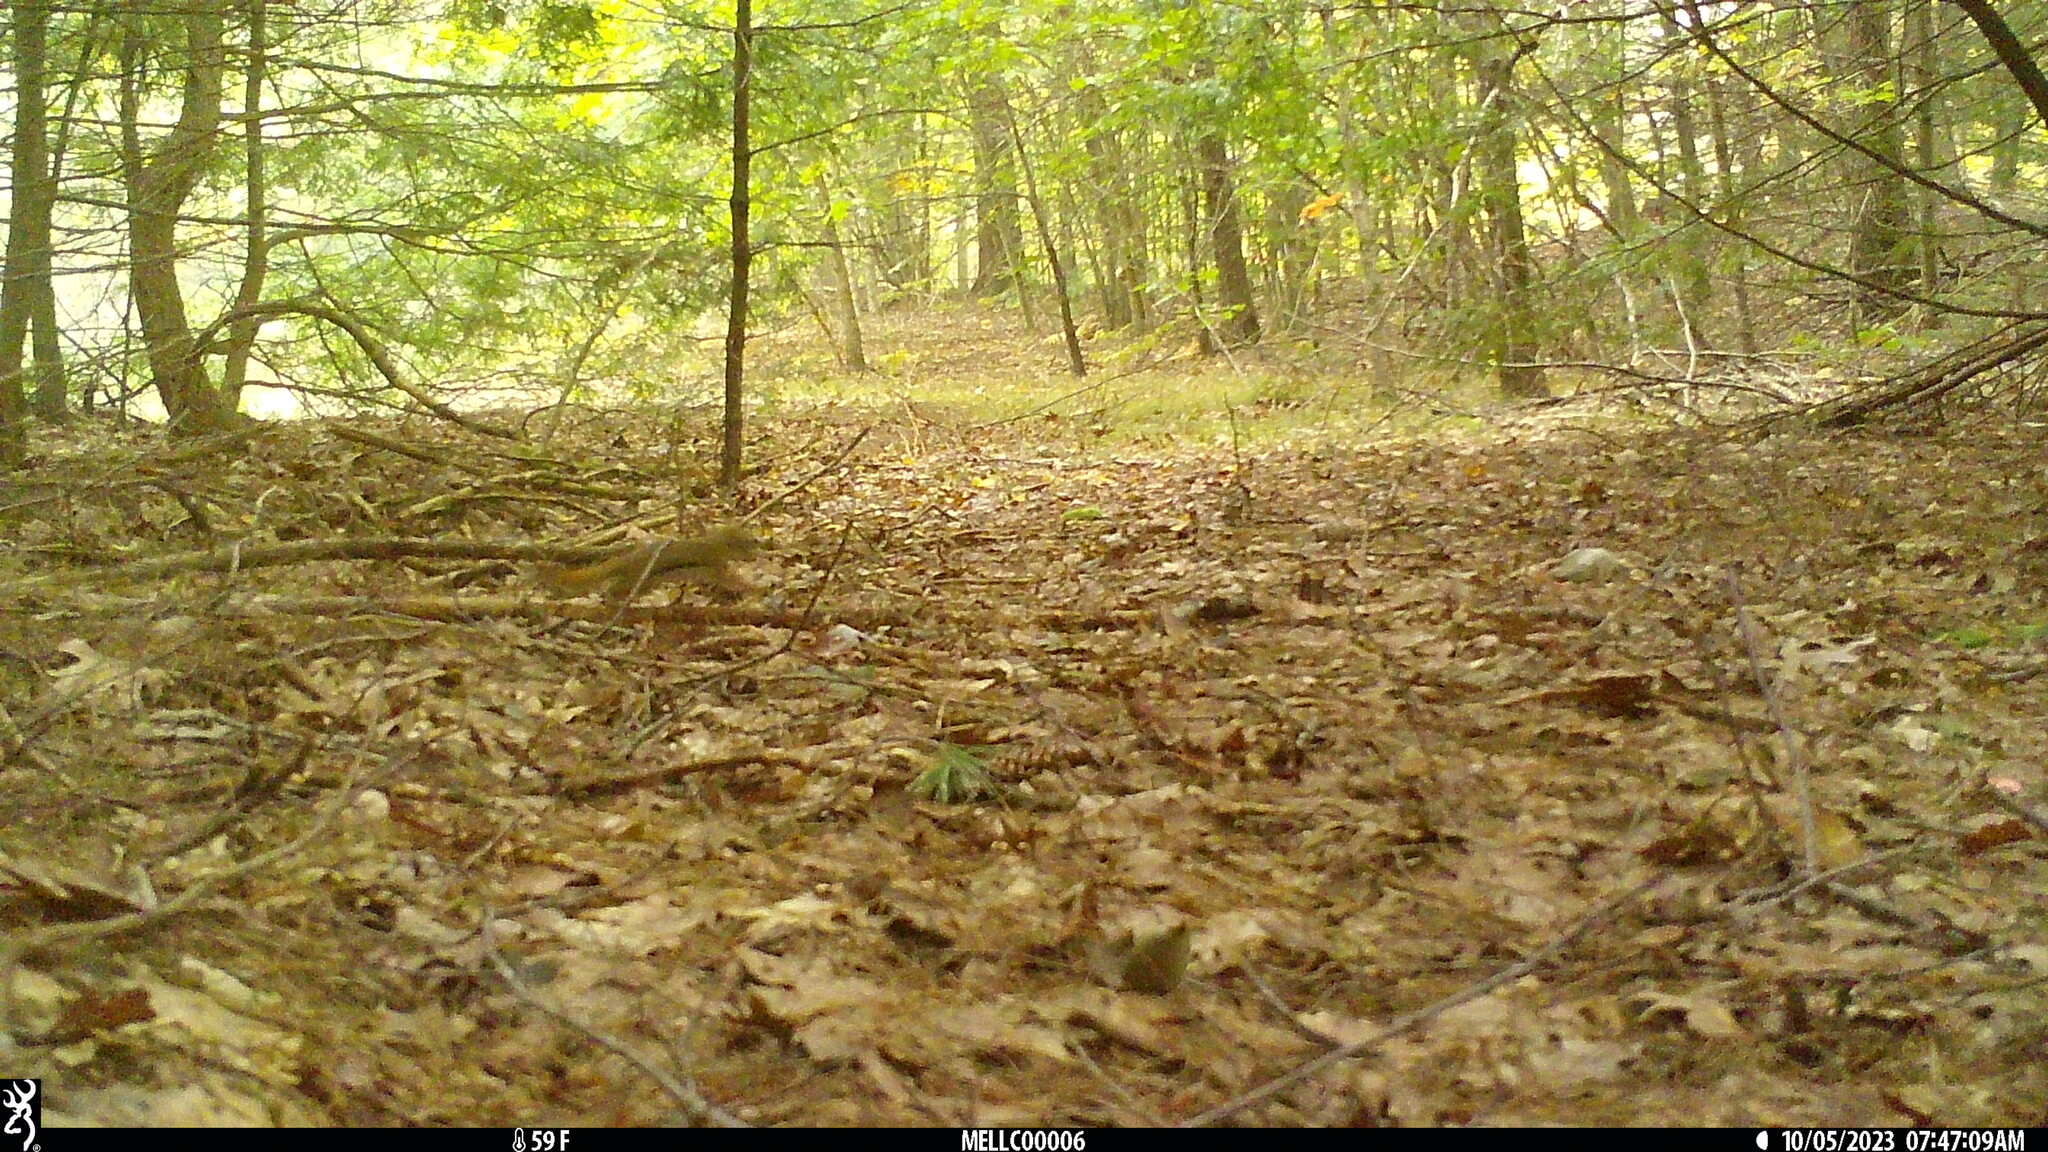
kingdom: Animalia
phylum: Chordata
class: Mammalia
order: Rodentia
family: Sciuridae
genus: Tamiasciurus
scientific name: Tamiasciurus hudsonicus
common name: Red squirrel
